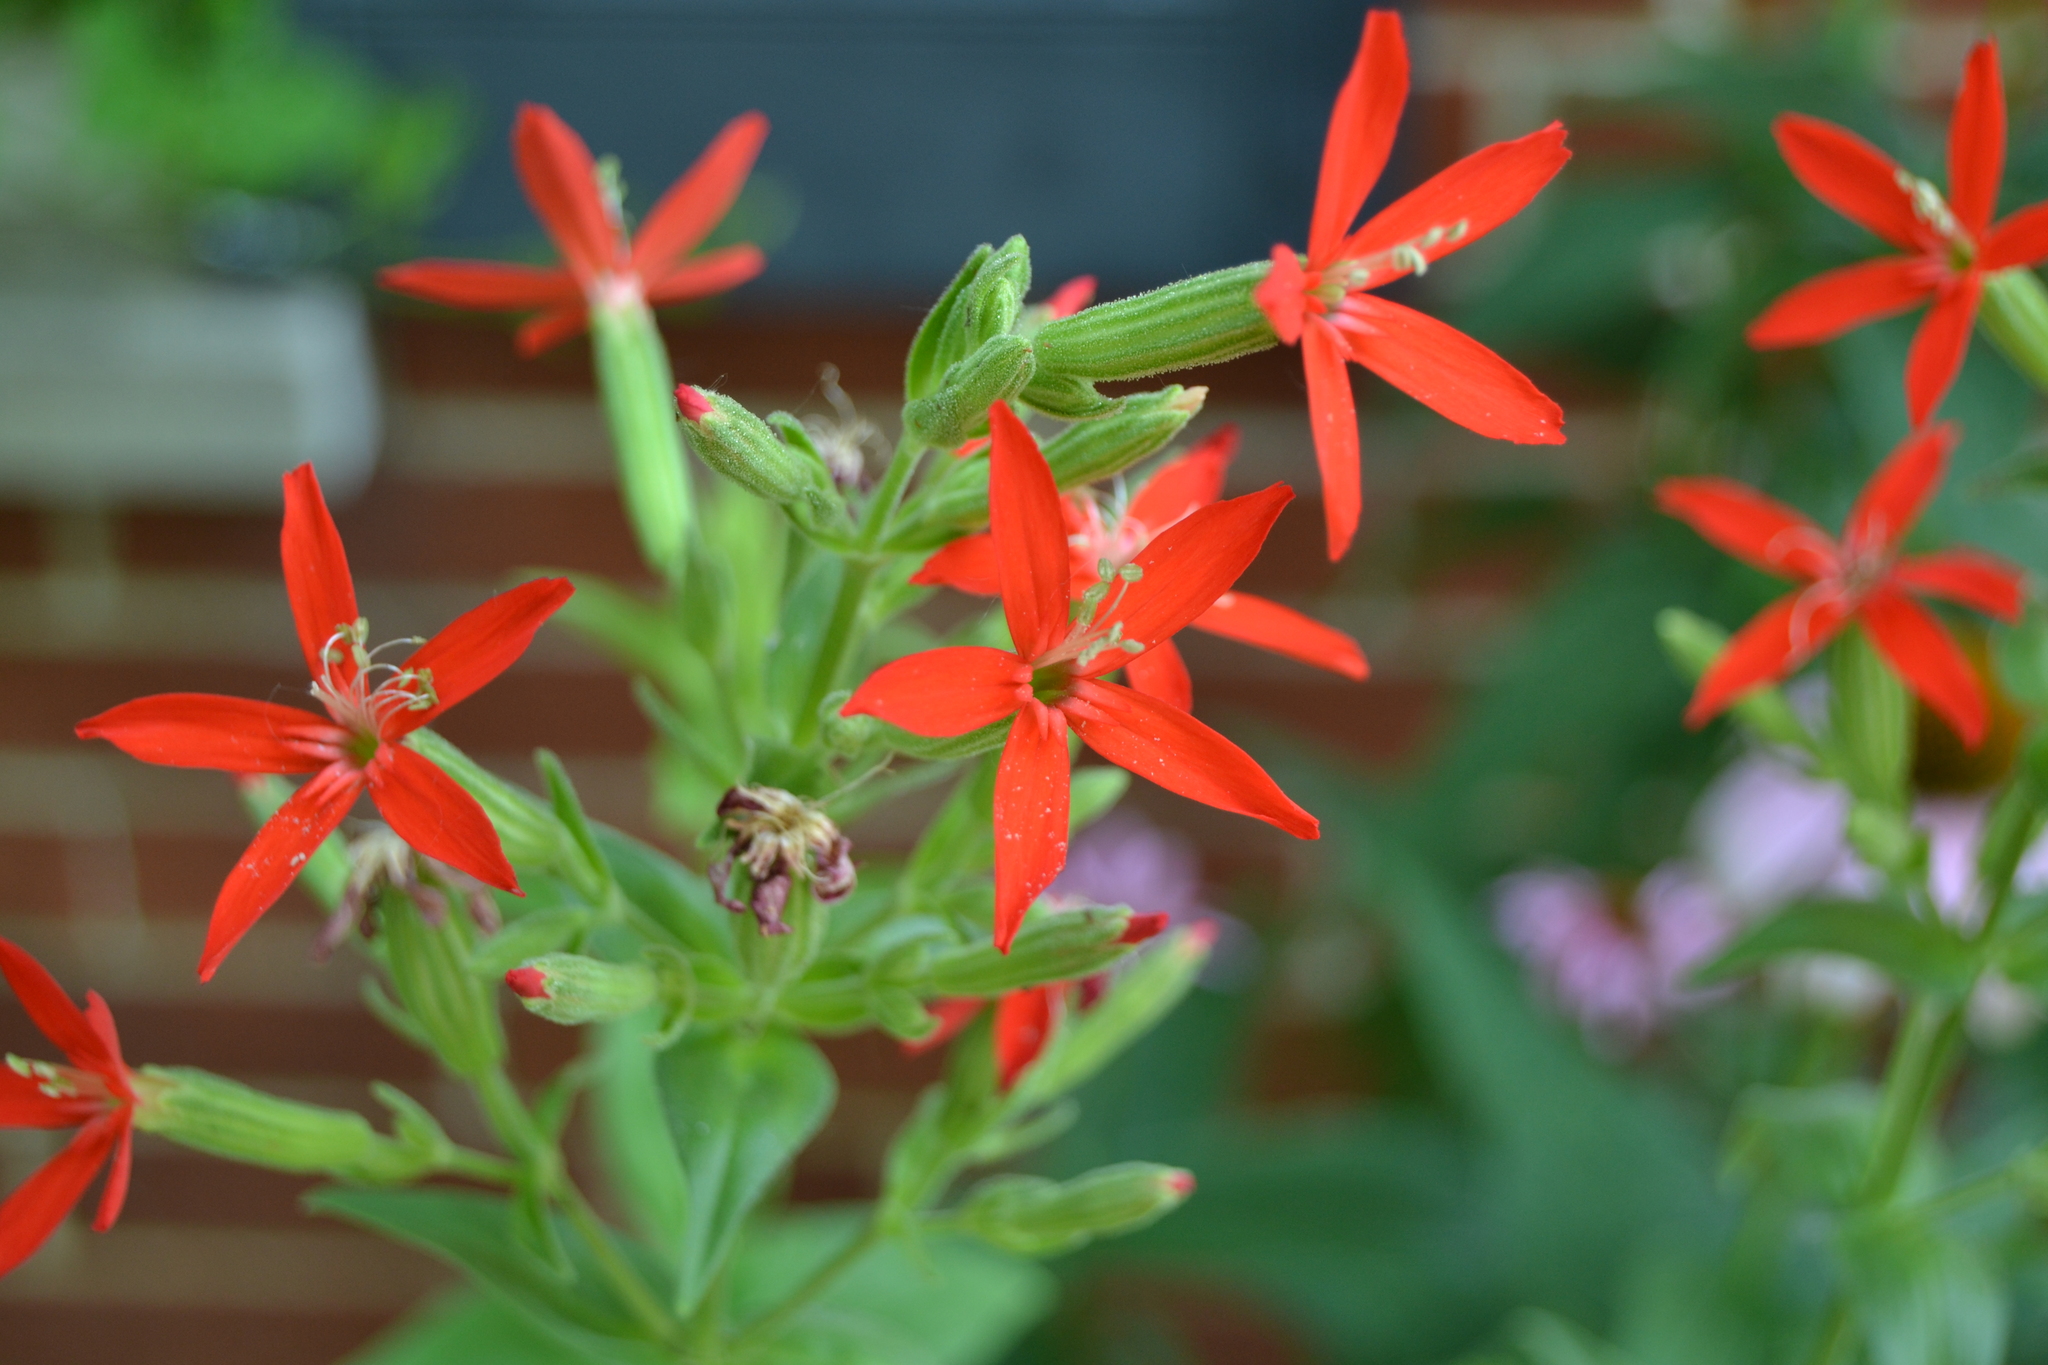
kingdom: Plantae
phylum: Tracheophyta
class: Magnoliopsida
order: Caryophyllales
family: Caryophyllaceae
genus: Silene
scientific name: Silene regia
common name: Royal catchfly
